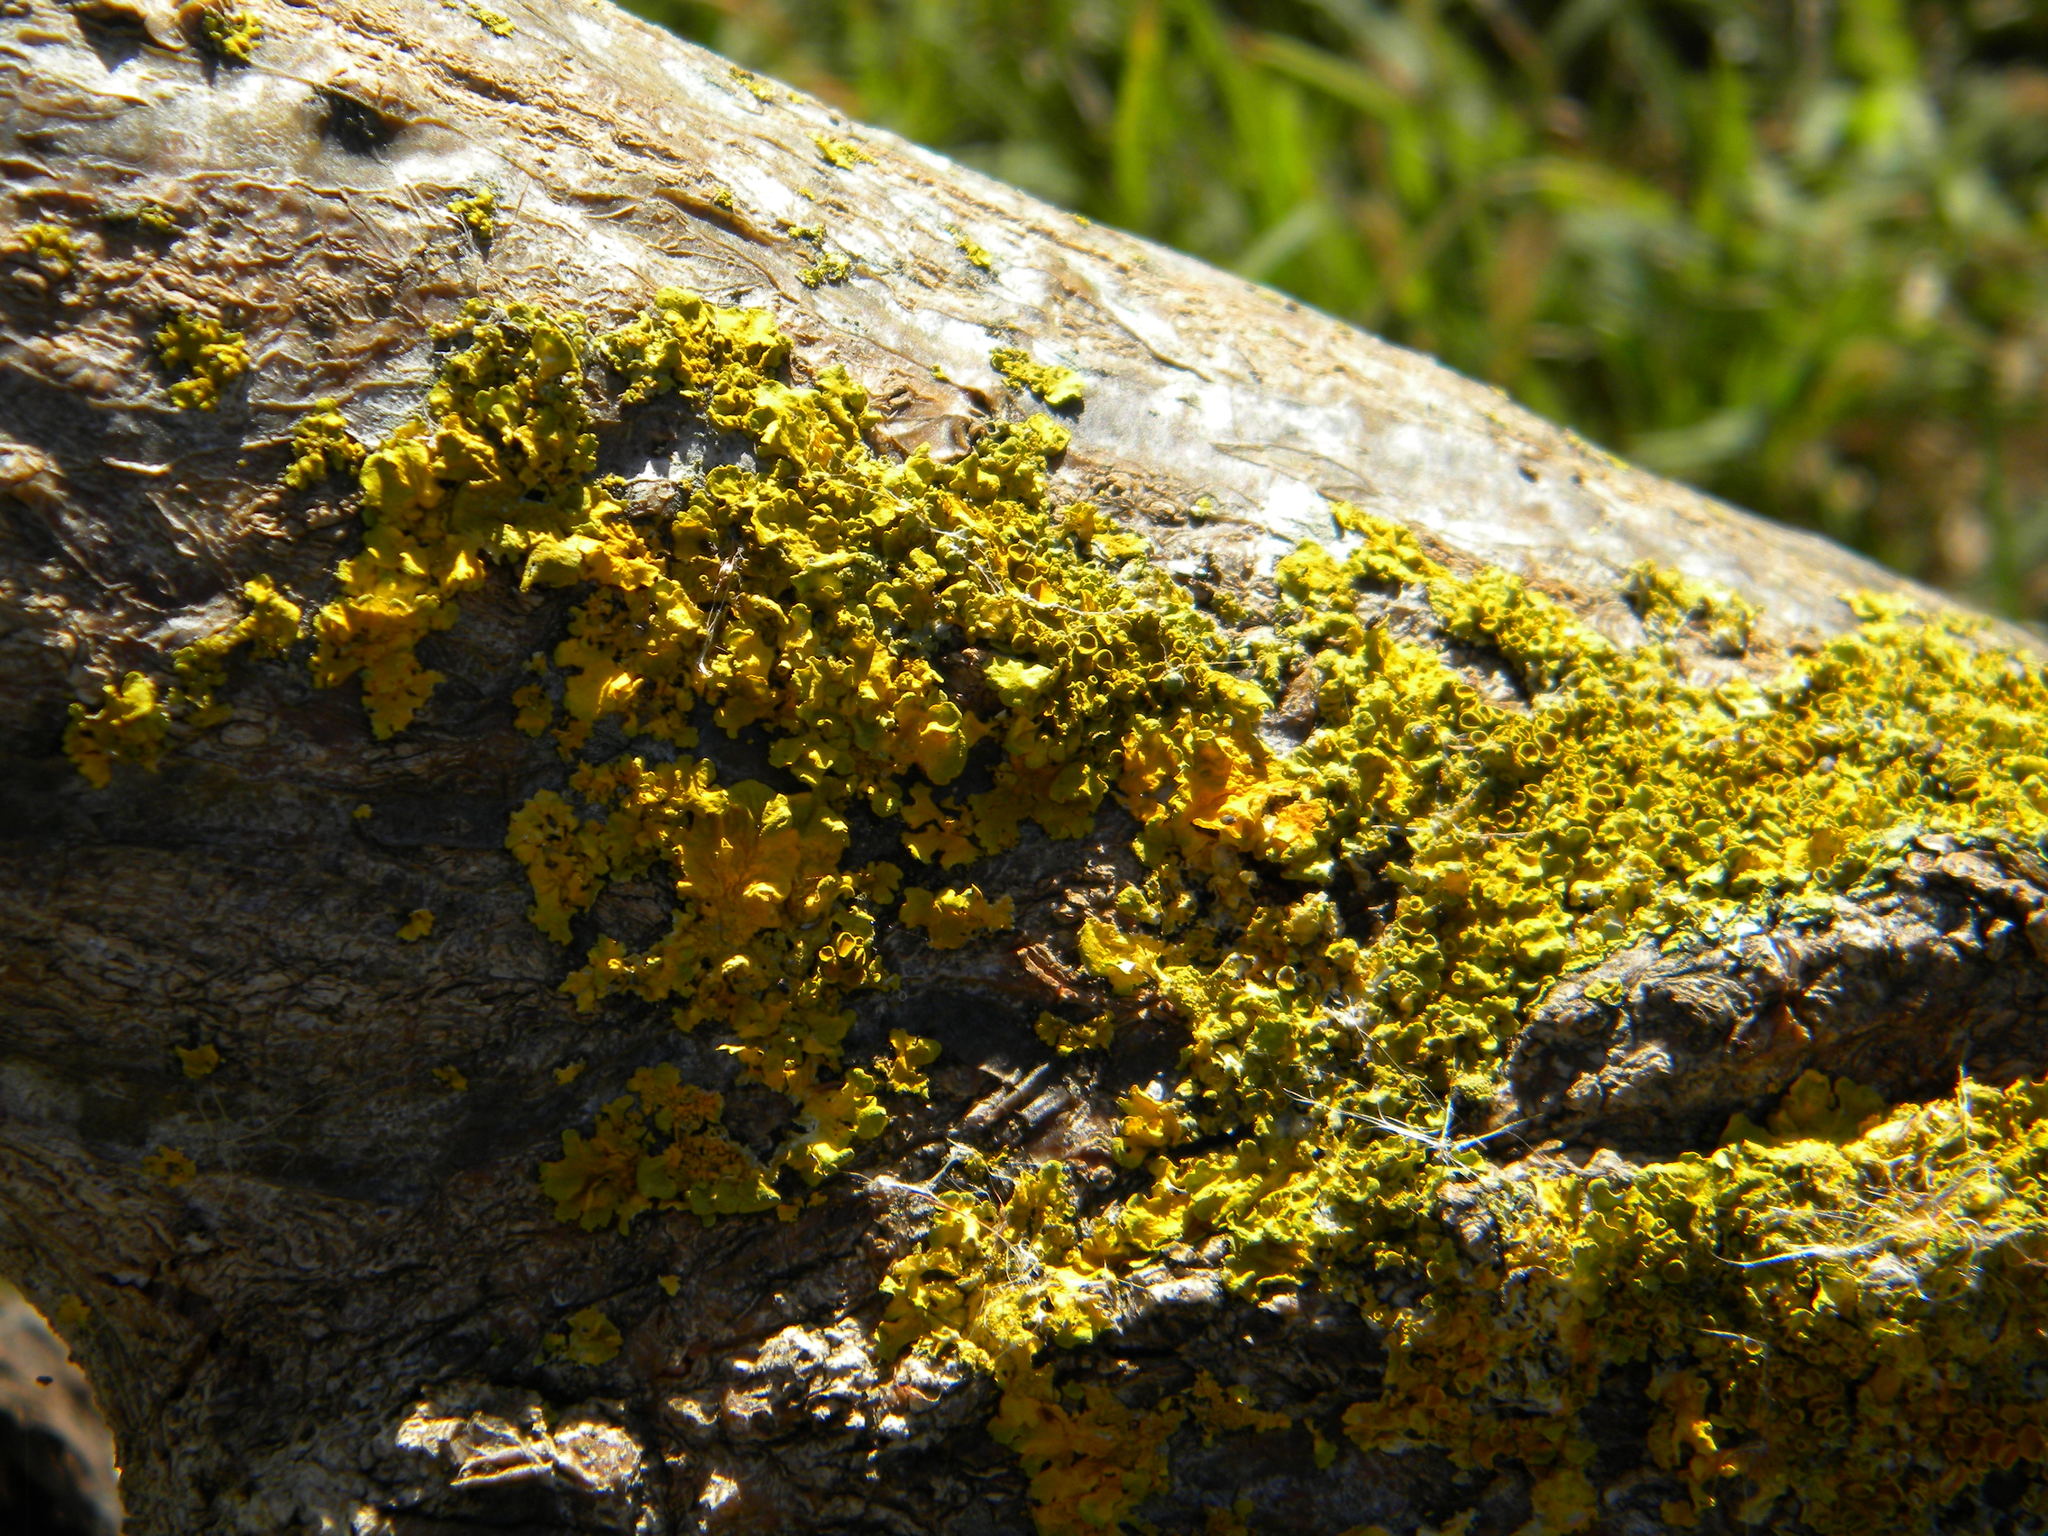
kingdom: Fungi
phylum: Ascomycota
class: Lecanoromycetes
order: Teloschistales
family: Teloschistaceae
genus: Xanthoria
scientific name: Xanthoria parietina
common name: Common orange lichen
